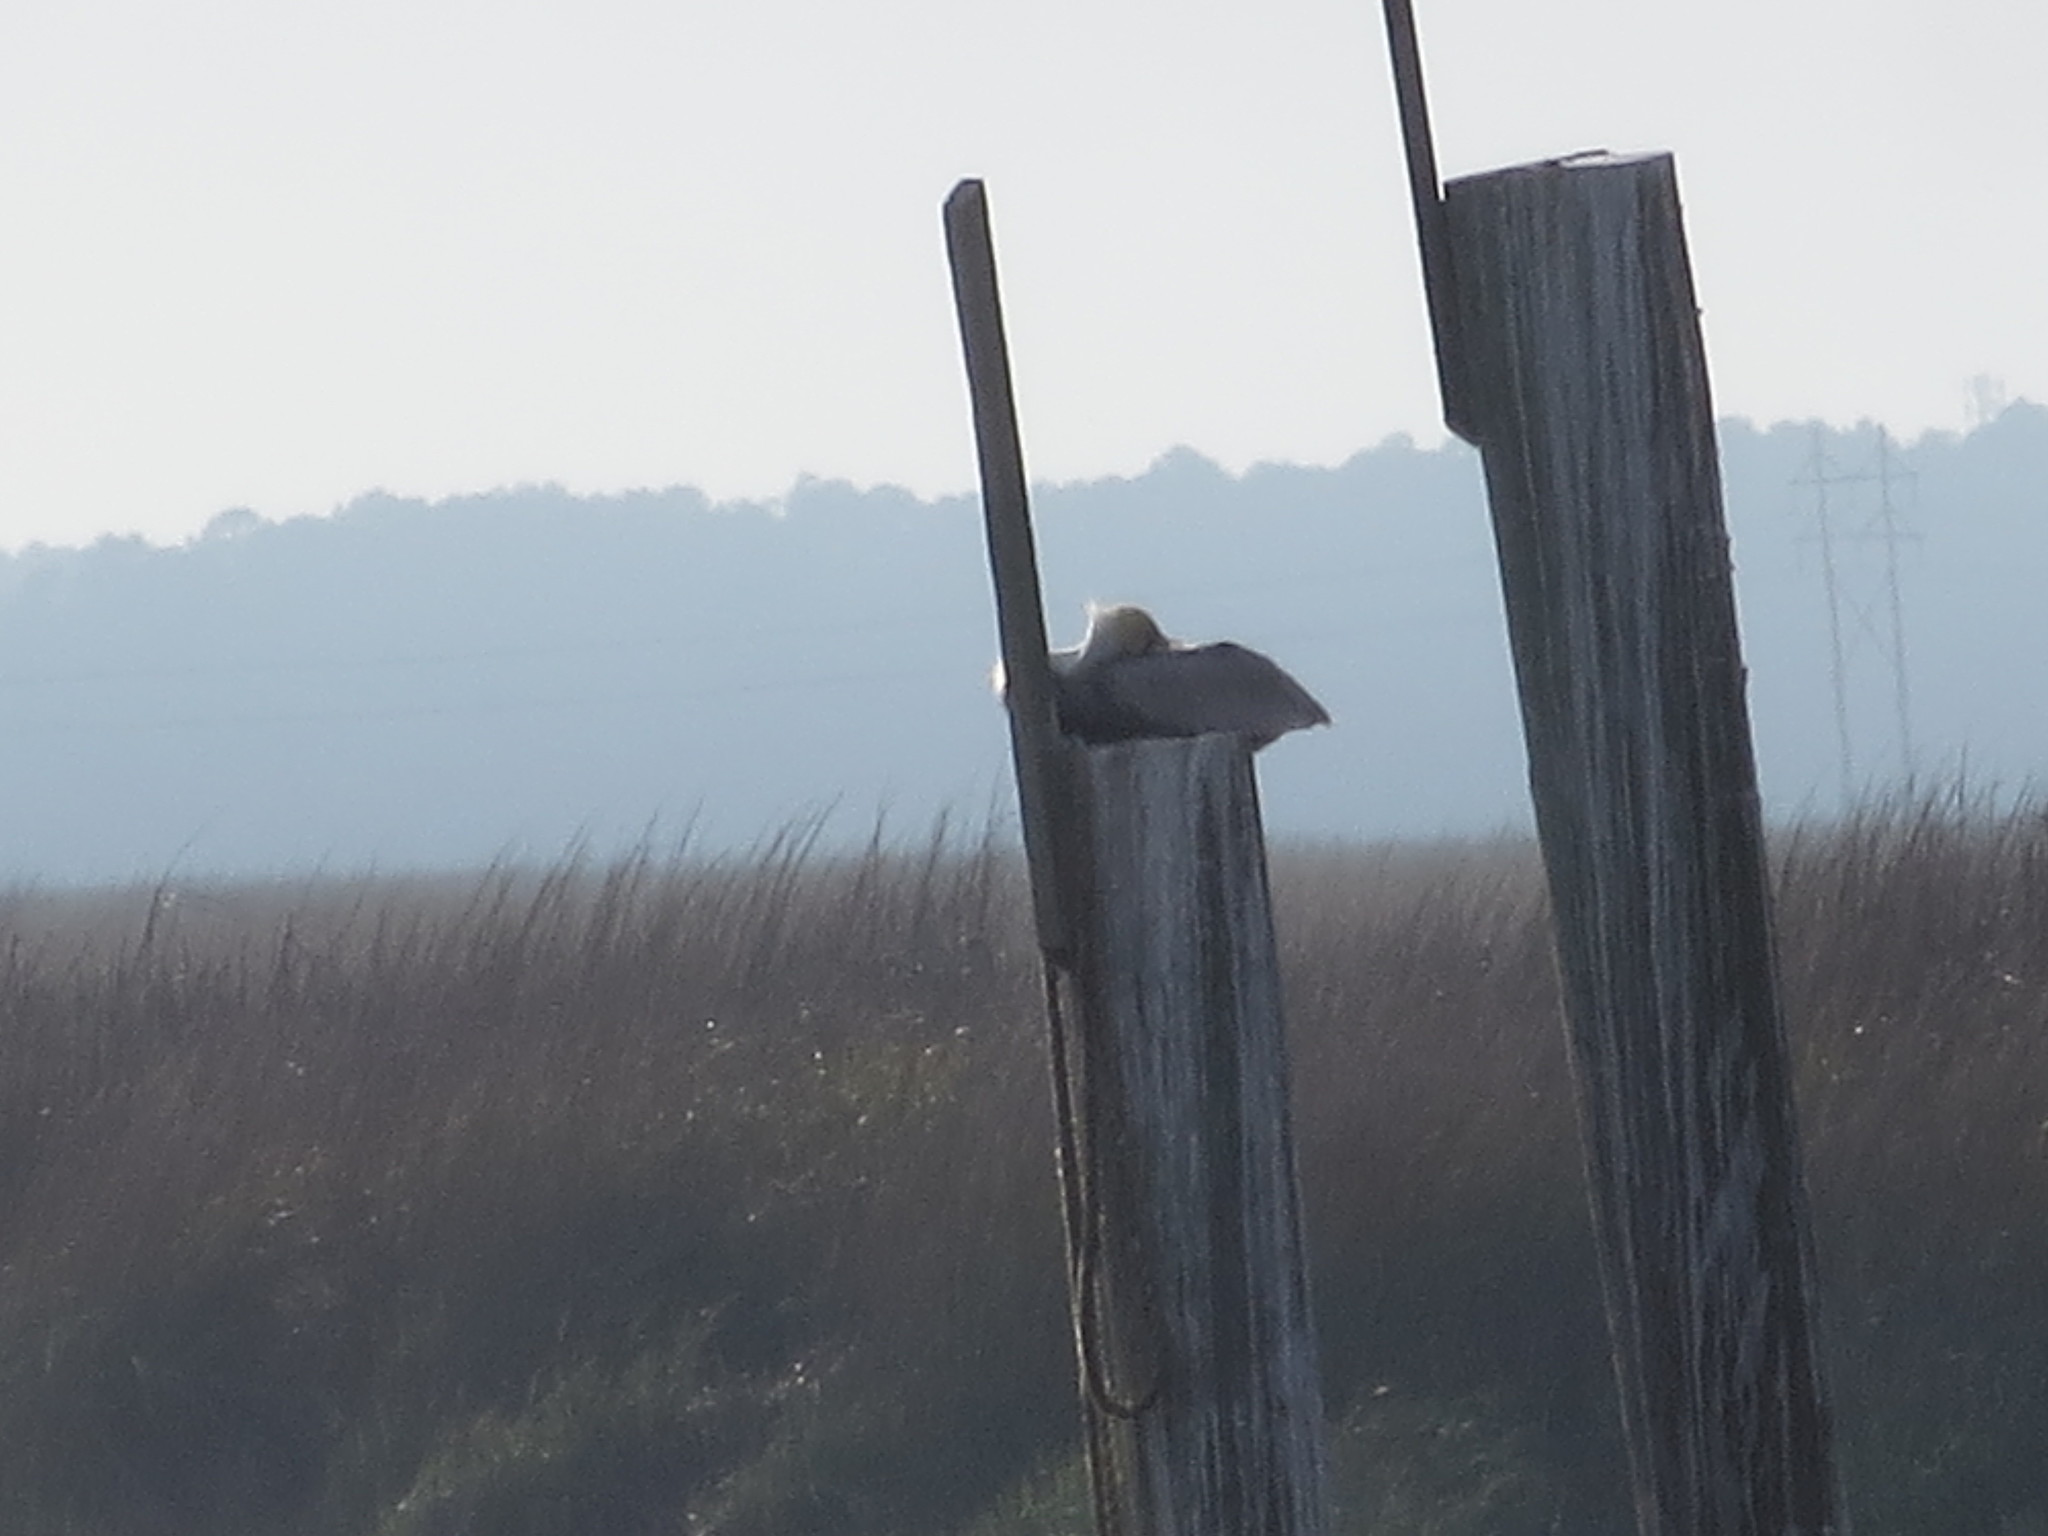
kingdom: Animalia
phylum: Chordata
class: Aves
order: Pelecaniformes
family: Pelecanidae
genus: Pelecanus
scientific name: Pelecanus occidentalis
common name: Brown pelican
